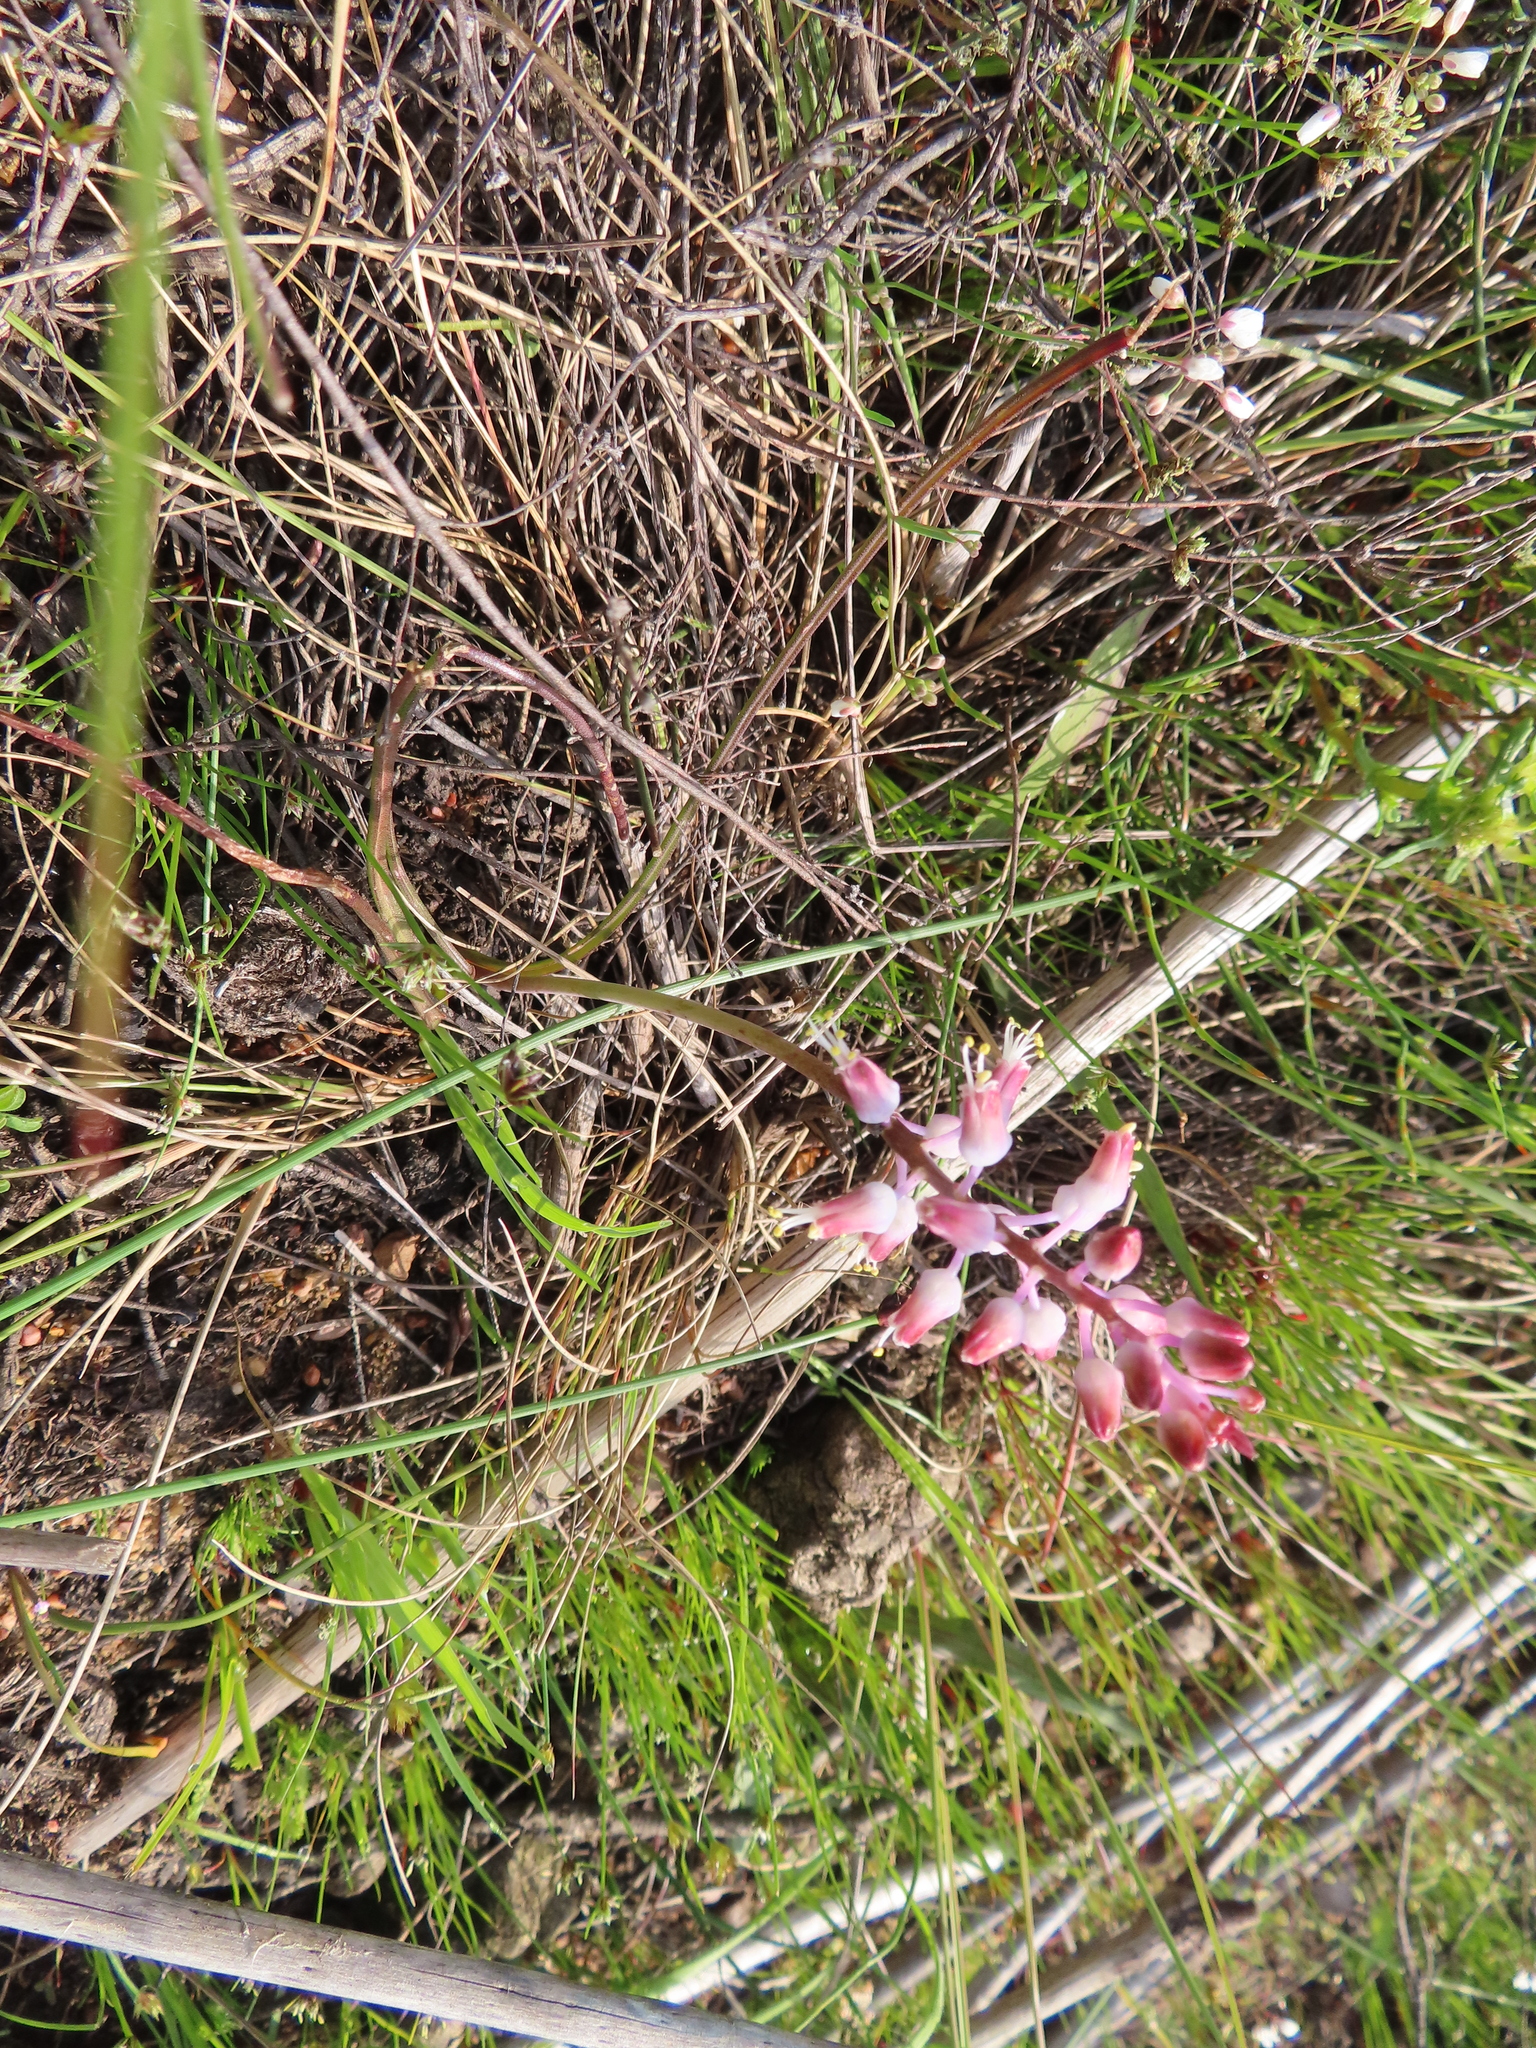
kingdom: Plantae
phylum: Tracheophyta
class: Liliopsida
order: Asparagales
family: Asparagaceae
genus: Lachenalia
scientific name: Lachenalia polyphylla
